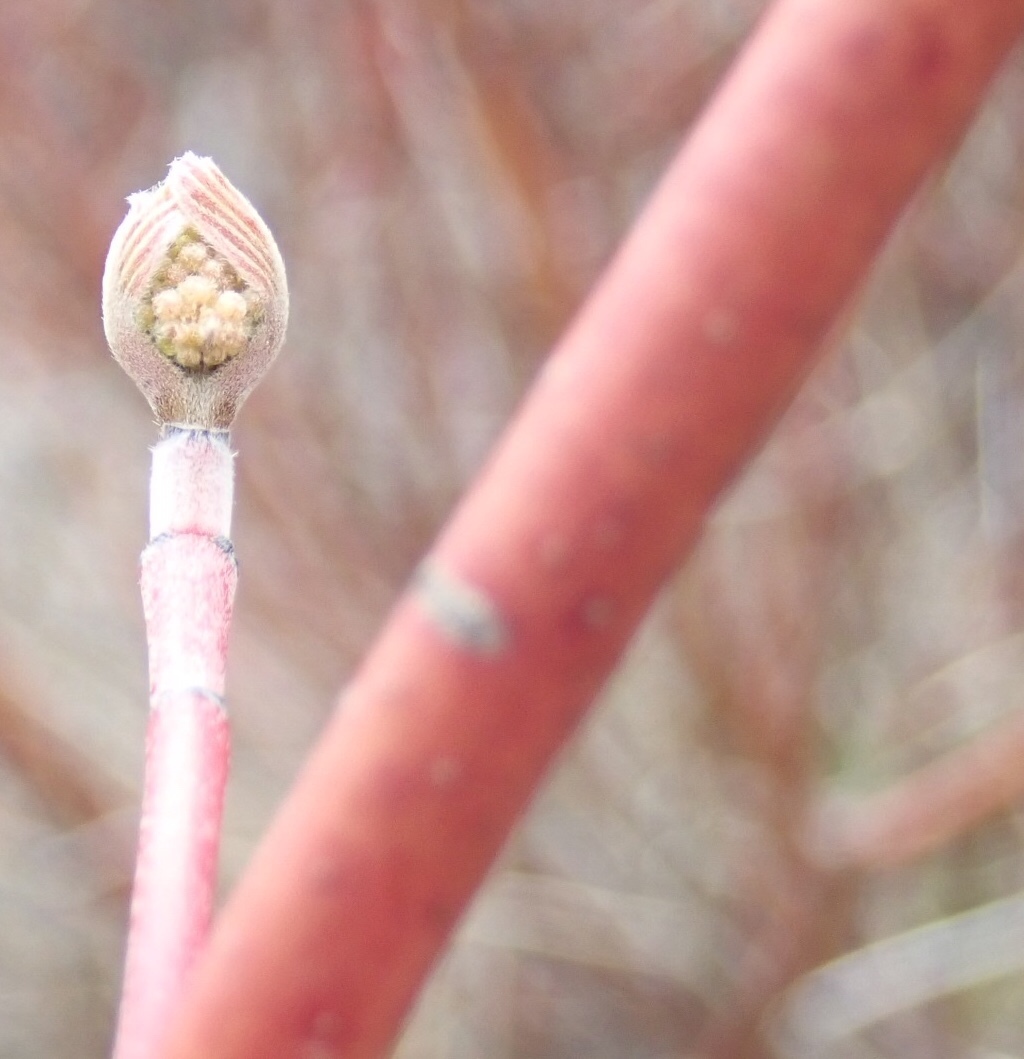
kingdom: Plantae
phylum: Tracheophyta
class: Magnoliopsida
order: Cornales
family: Cornaceae
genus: Cornus
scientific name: Cornus sericea
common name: Red-osier dogwood
